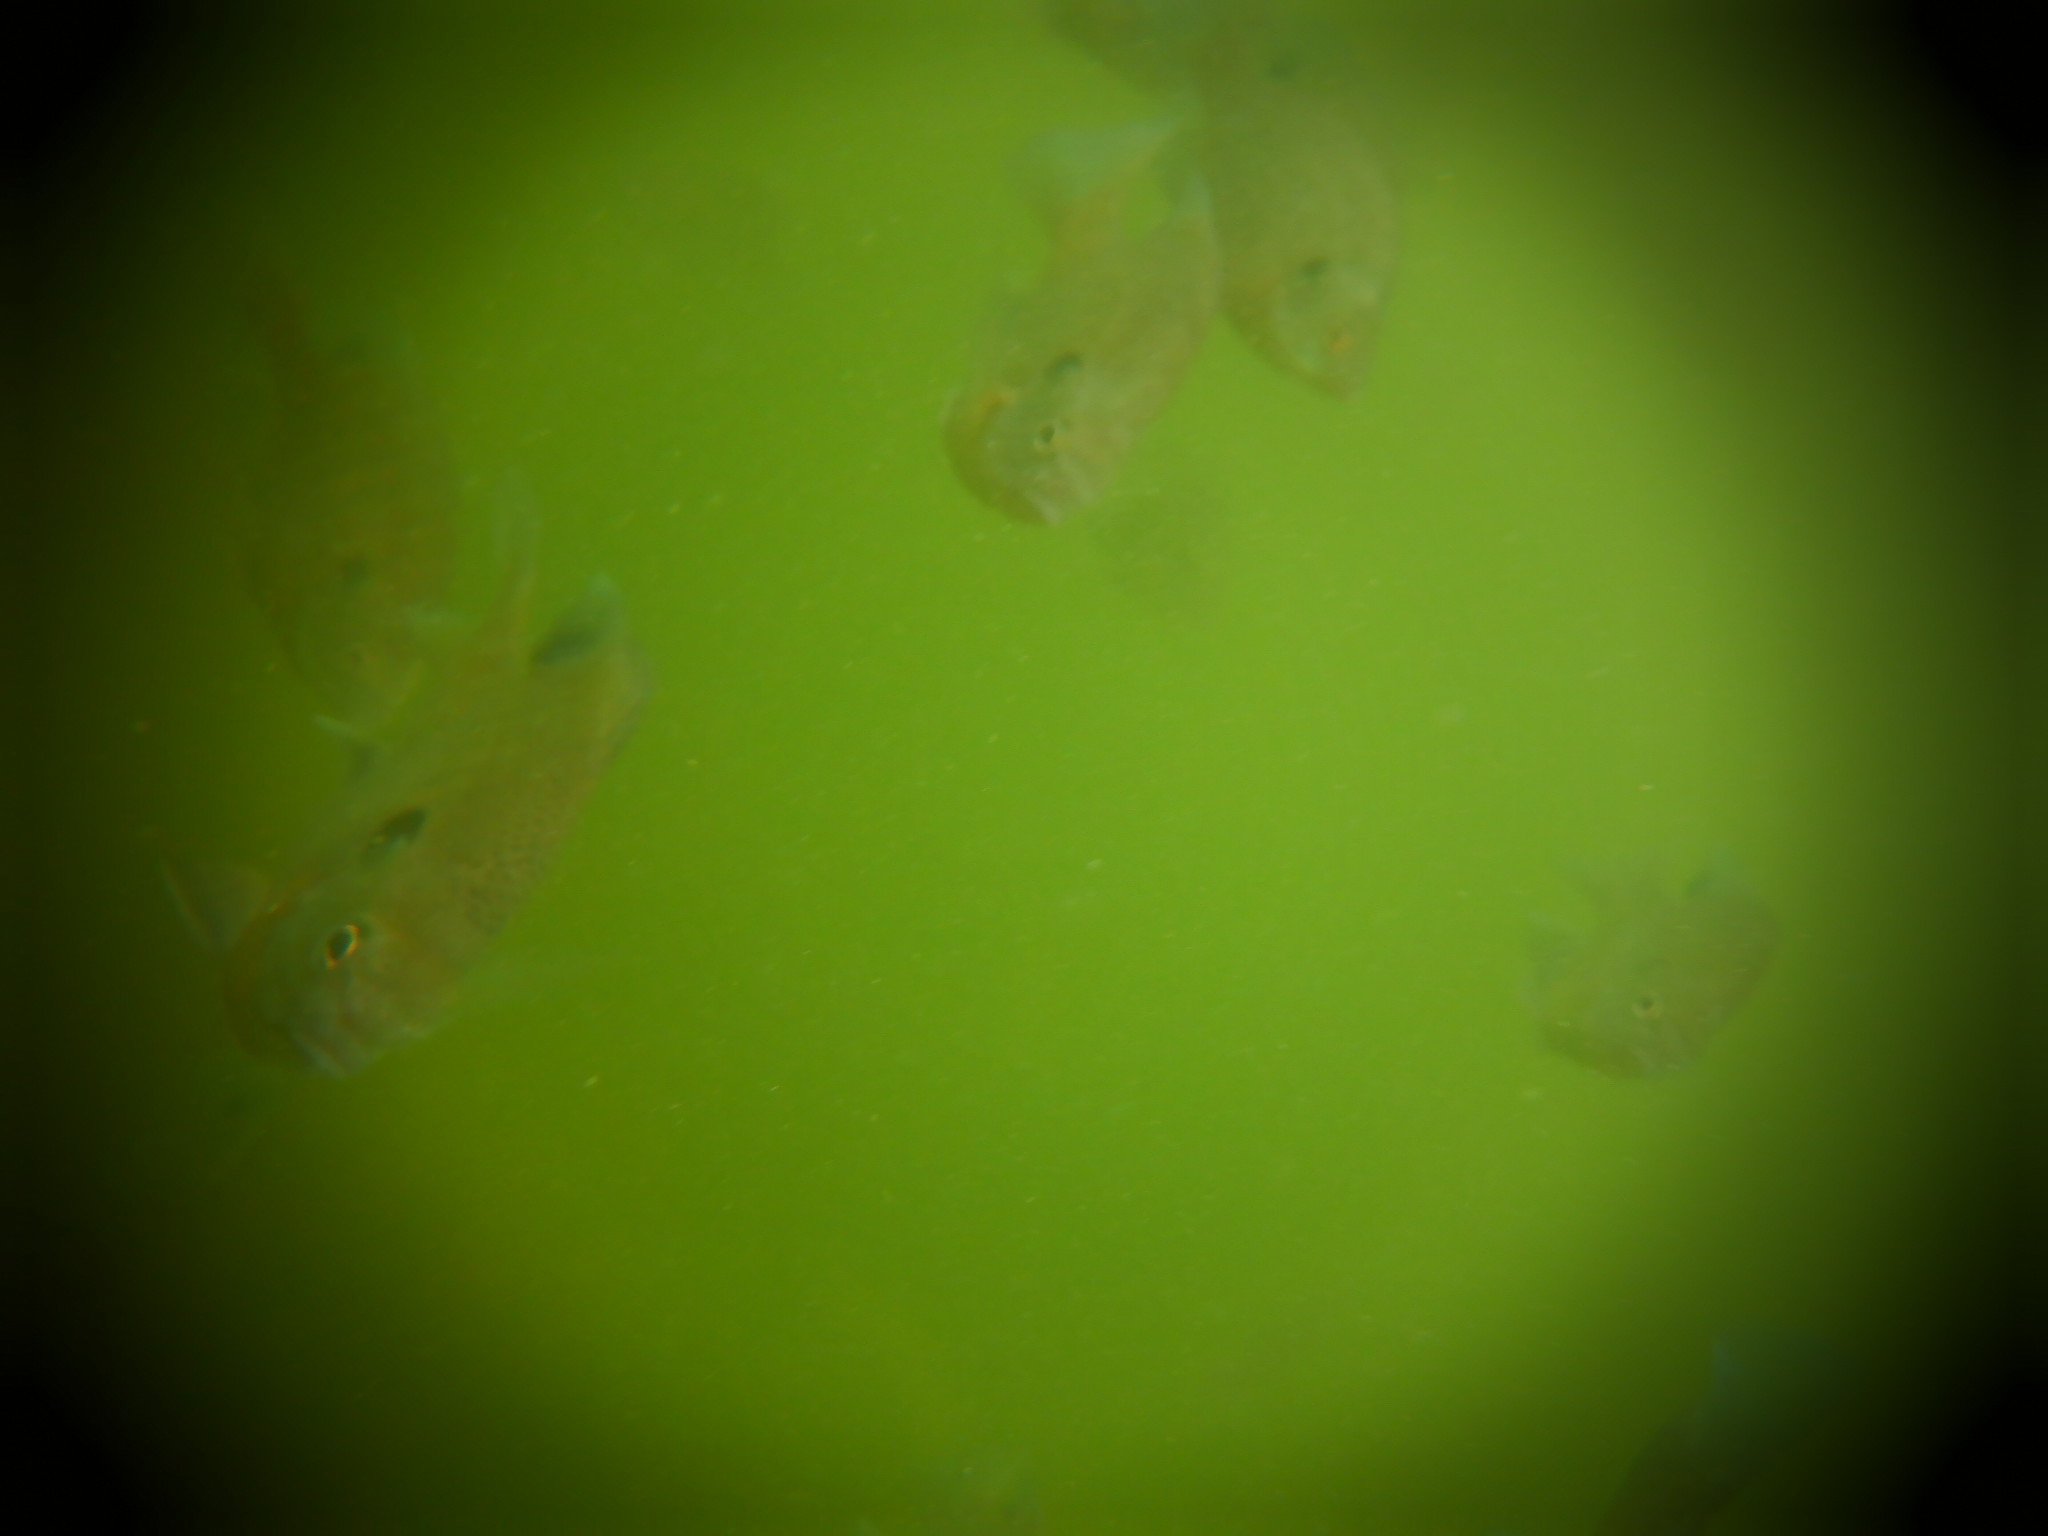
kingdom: Animalia
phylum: Chordata
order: Perciformes
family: Centrarchidae
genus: Lepomis
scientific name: Lepomis macrochirus
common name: Bluegill
